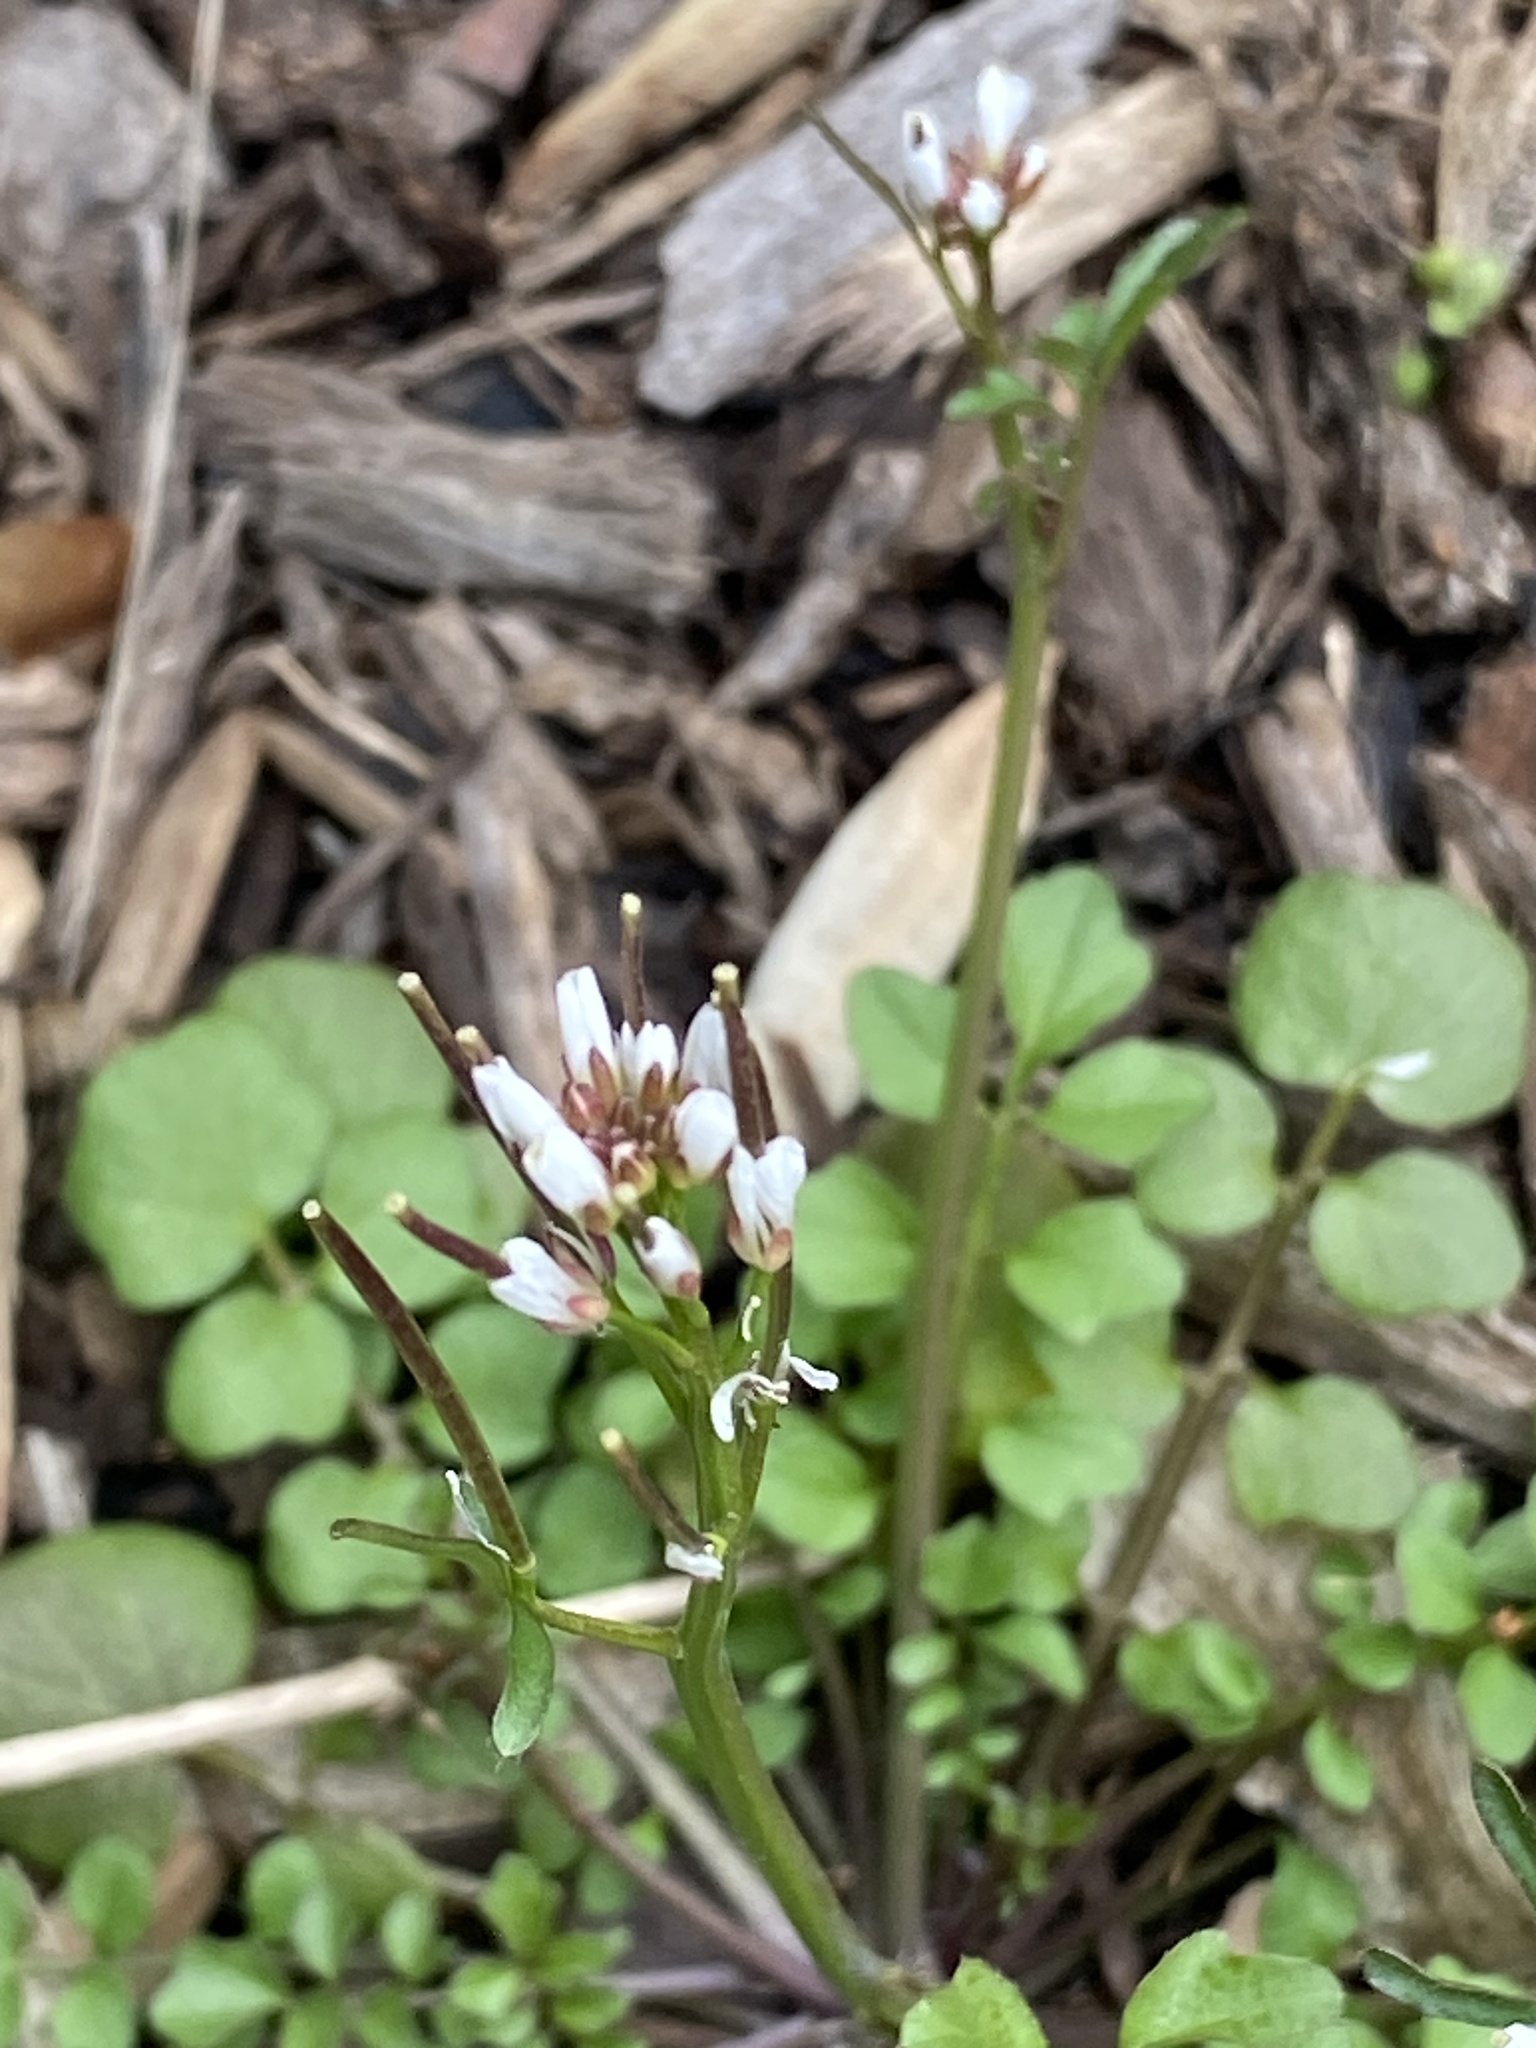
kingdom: Plantae
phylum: Tracheophyta
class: Magnoliopsida
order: Brassicales
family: Brassicaceae
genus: Cardamine
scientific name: Cardamine hirsuta
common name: Hairy bittercress
